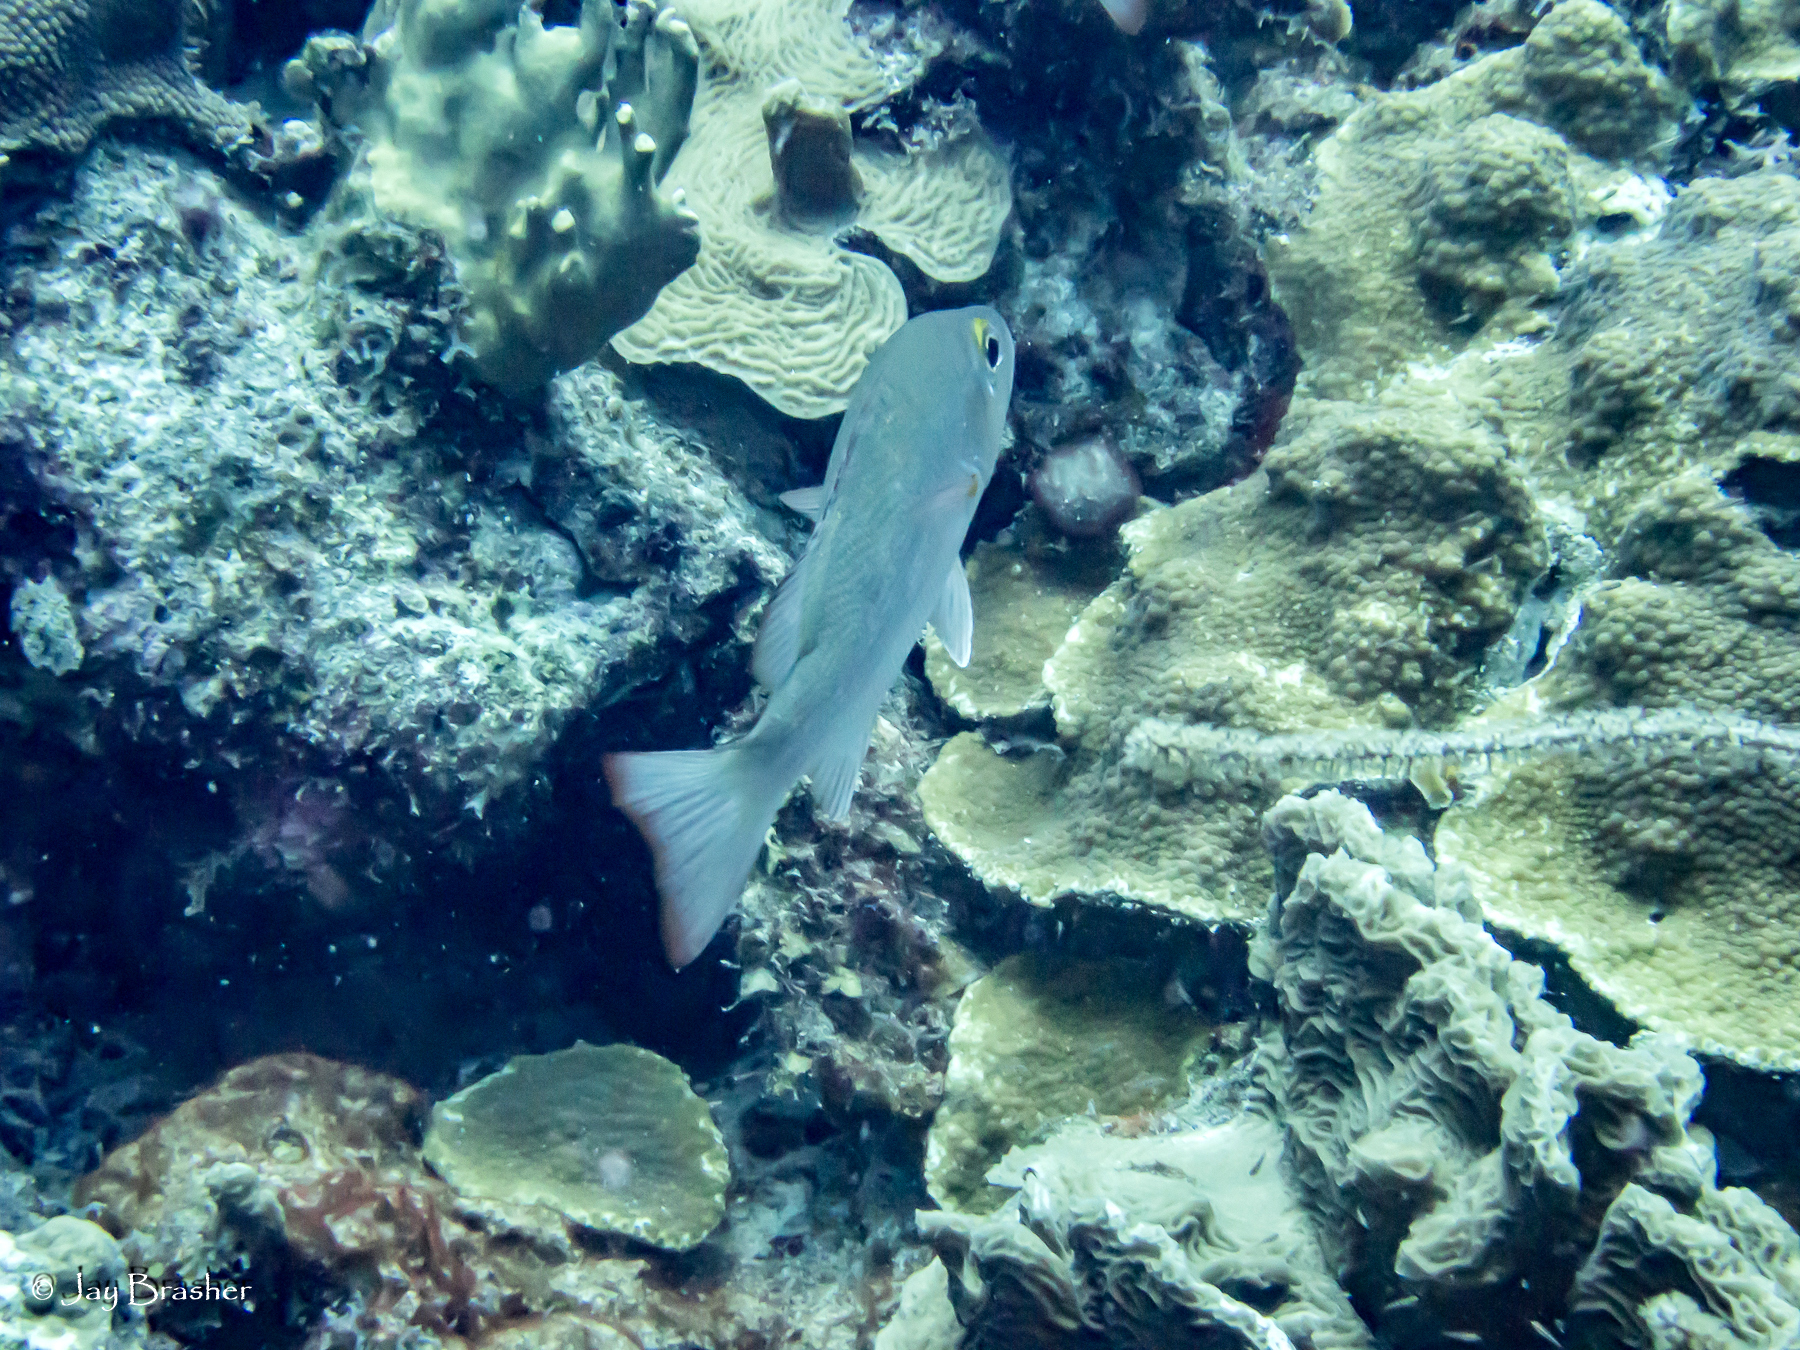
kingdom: Animalia
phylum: Chordata
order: Perciformes
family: Lutjanidae
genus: Lutjanus
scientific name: Lutjanus mahogoni
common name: Spot snapper
